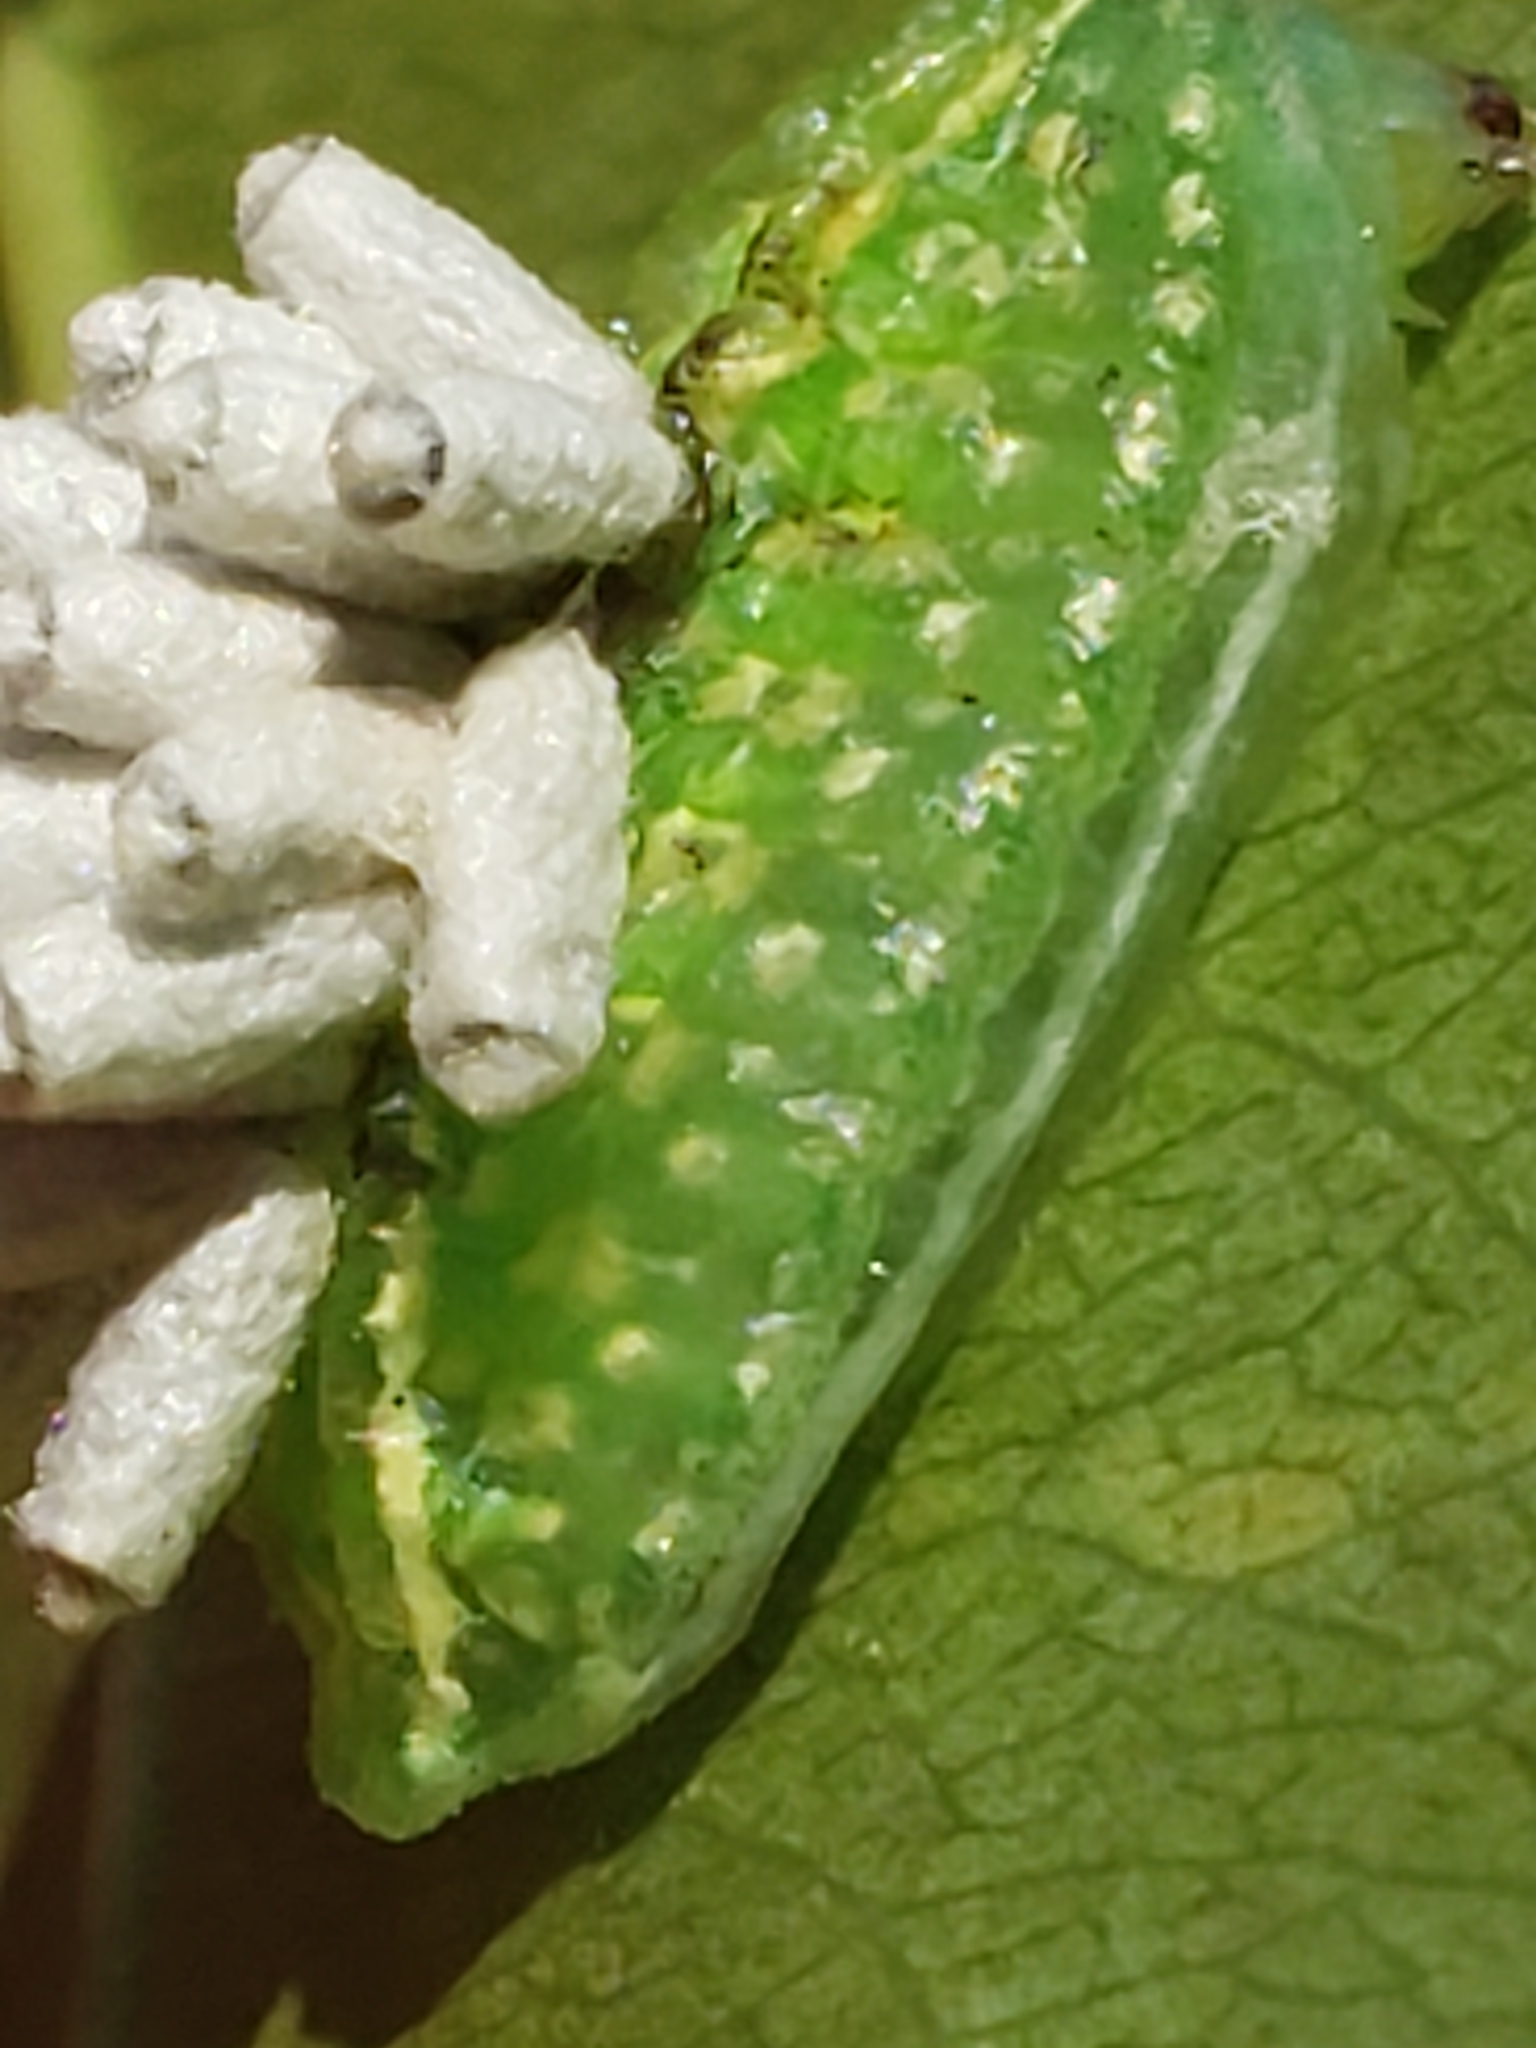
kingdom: Animalia
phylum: Arthropoda
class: Insecta
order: Lepidoptera
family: Limacodidae
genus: Lithacodes
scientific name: Lithacodes fasciola
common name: Yellow-shouldered slug moth
